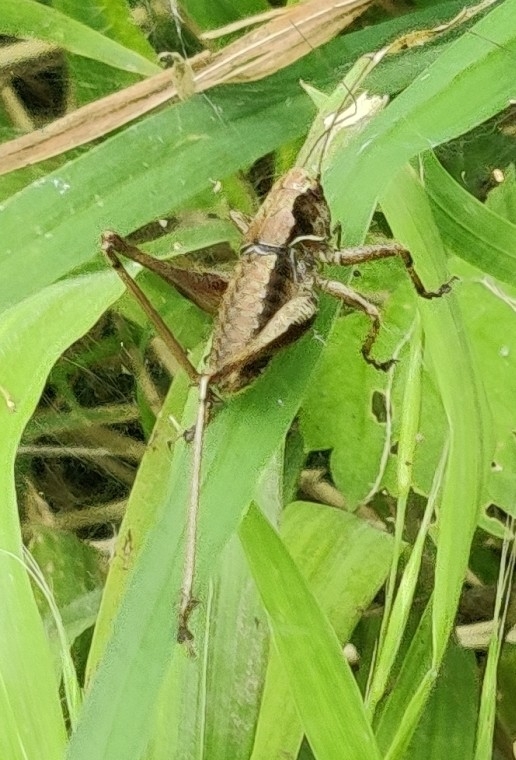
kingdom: Animalia
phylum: Arthropoda
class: Insecta
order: Orthoptera
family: Tettigoniidae
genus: Pholidoptera
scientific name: Pholidoptera griseoaptera
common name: Dark bush-cricket
